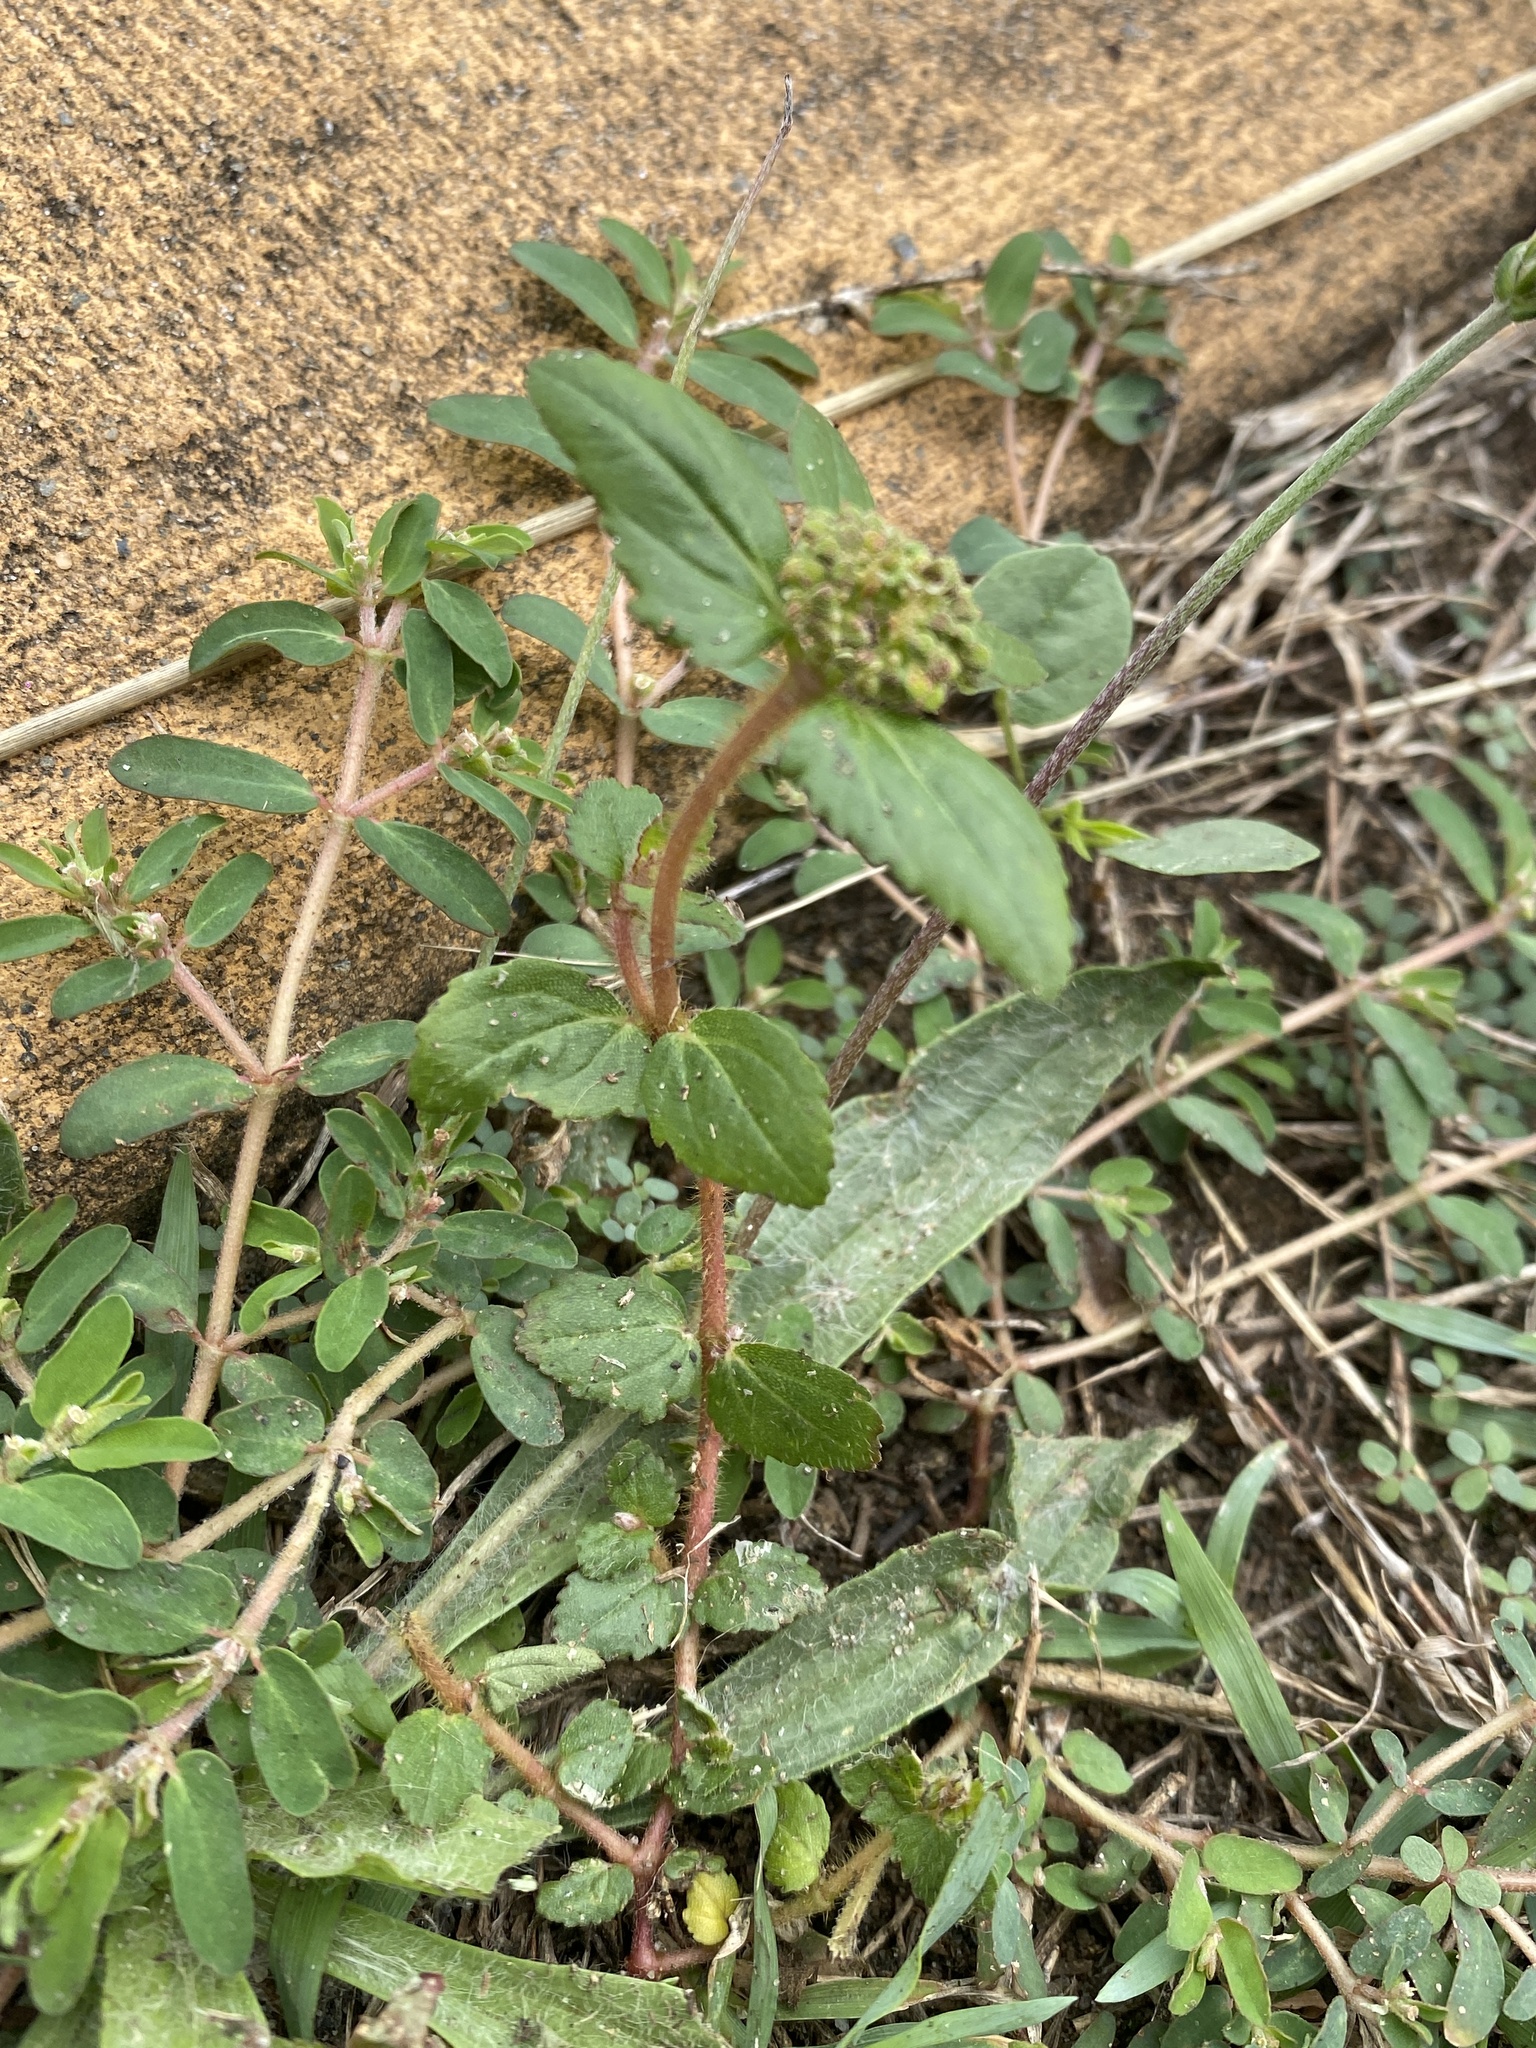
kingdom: Plantae
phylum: Tracheophyta
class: Magnoliopsida
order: Malpighiales
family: Euphorbiaceae
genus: Euphorbia
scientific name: Euphorbia ophthalmica
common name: Florida hammock sandmat
